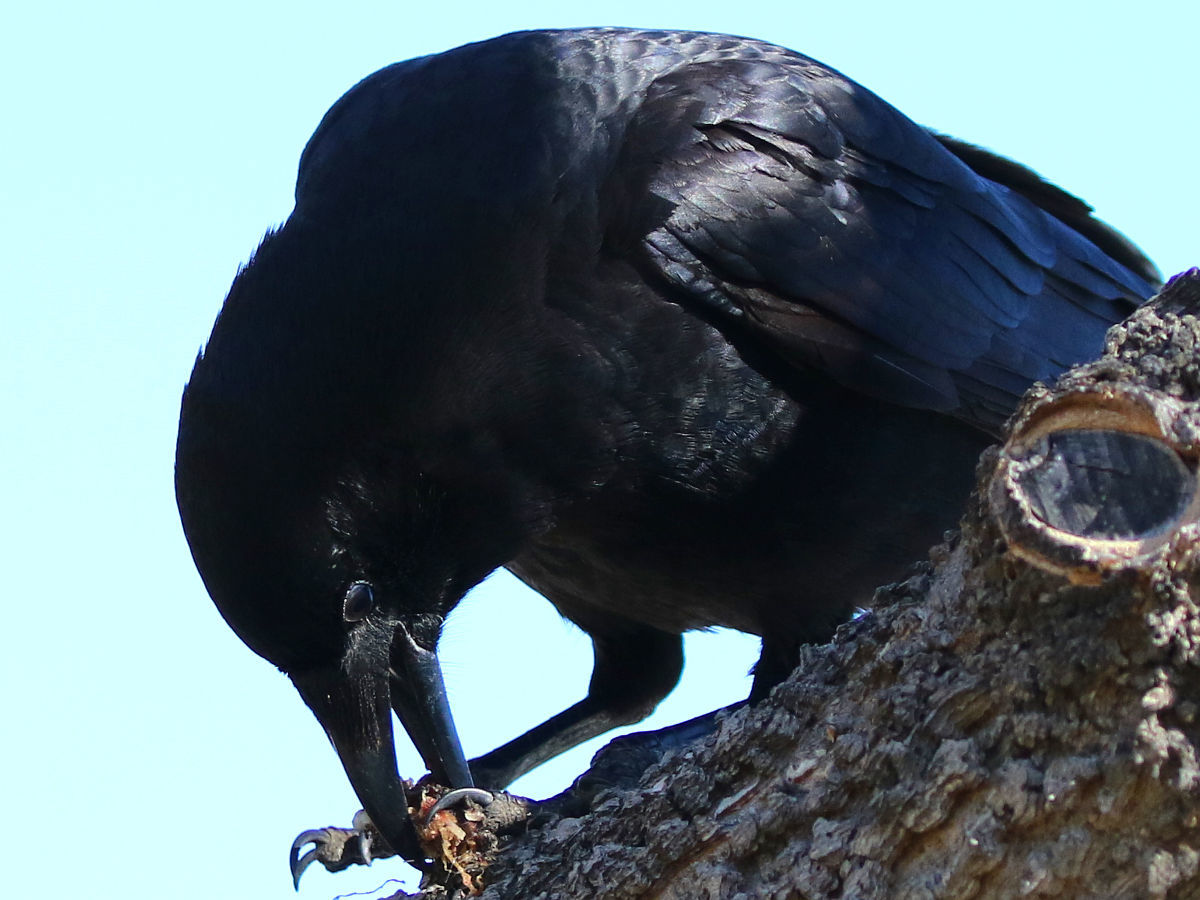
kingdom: Animalia
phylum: Chordata
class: Aves
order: Passeriformes
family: Corvidae
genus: Corvus
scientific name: Corvus brachyrhynchos
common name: American crow
